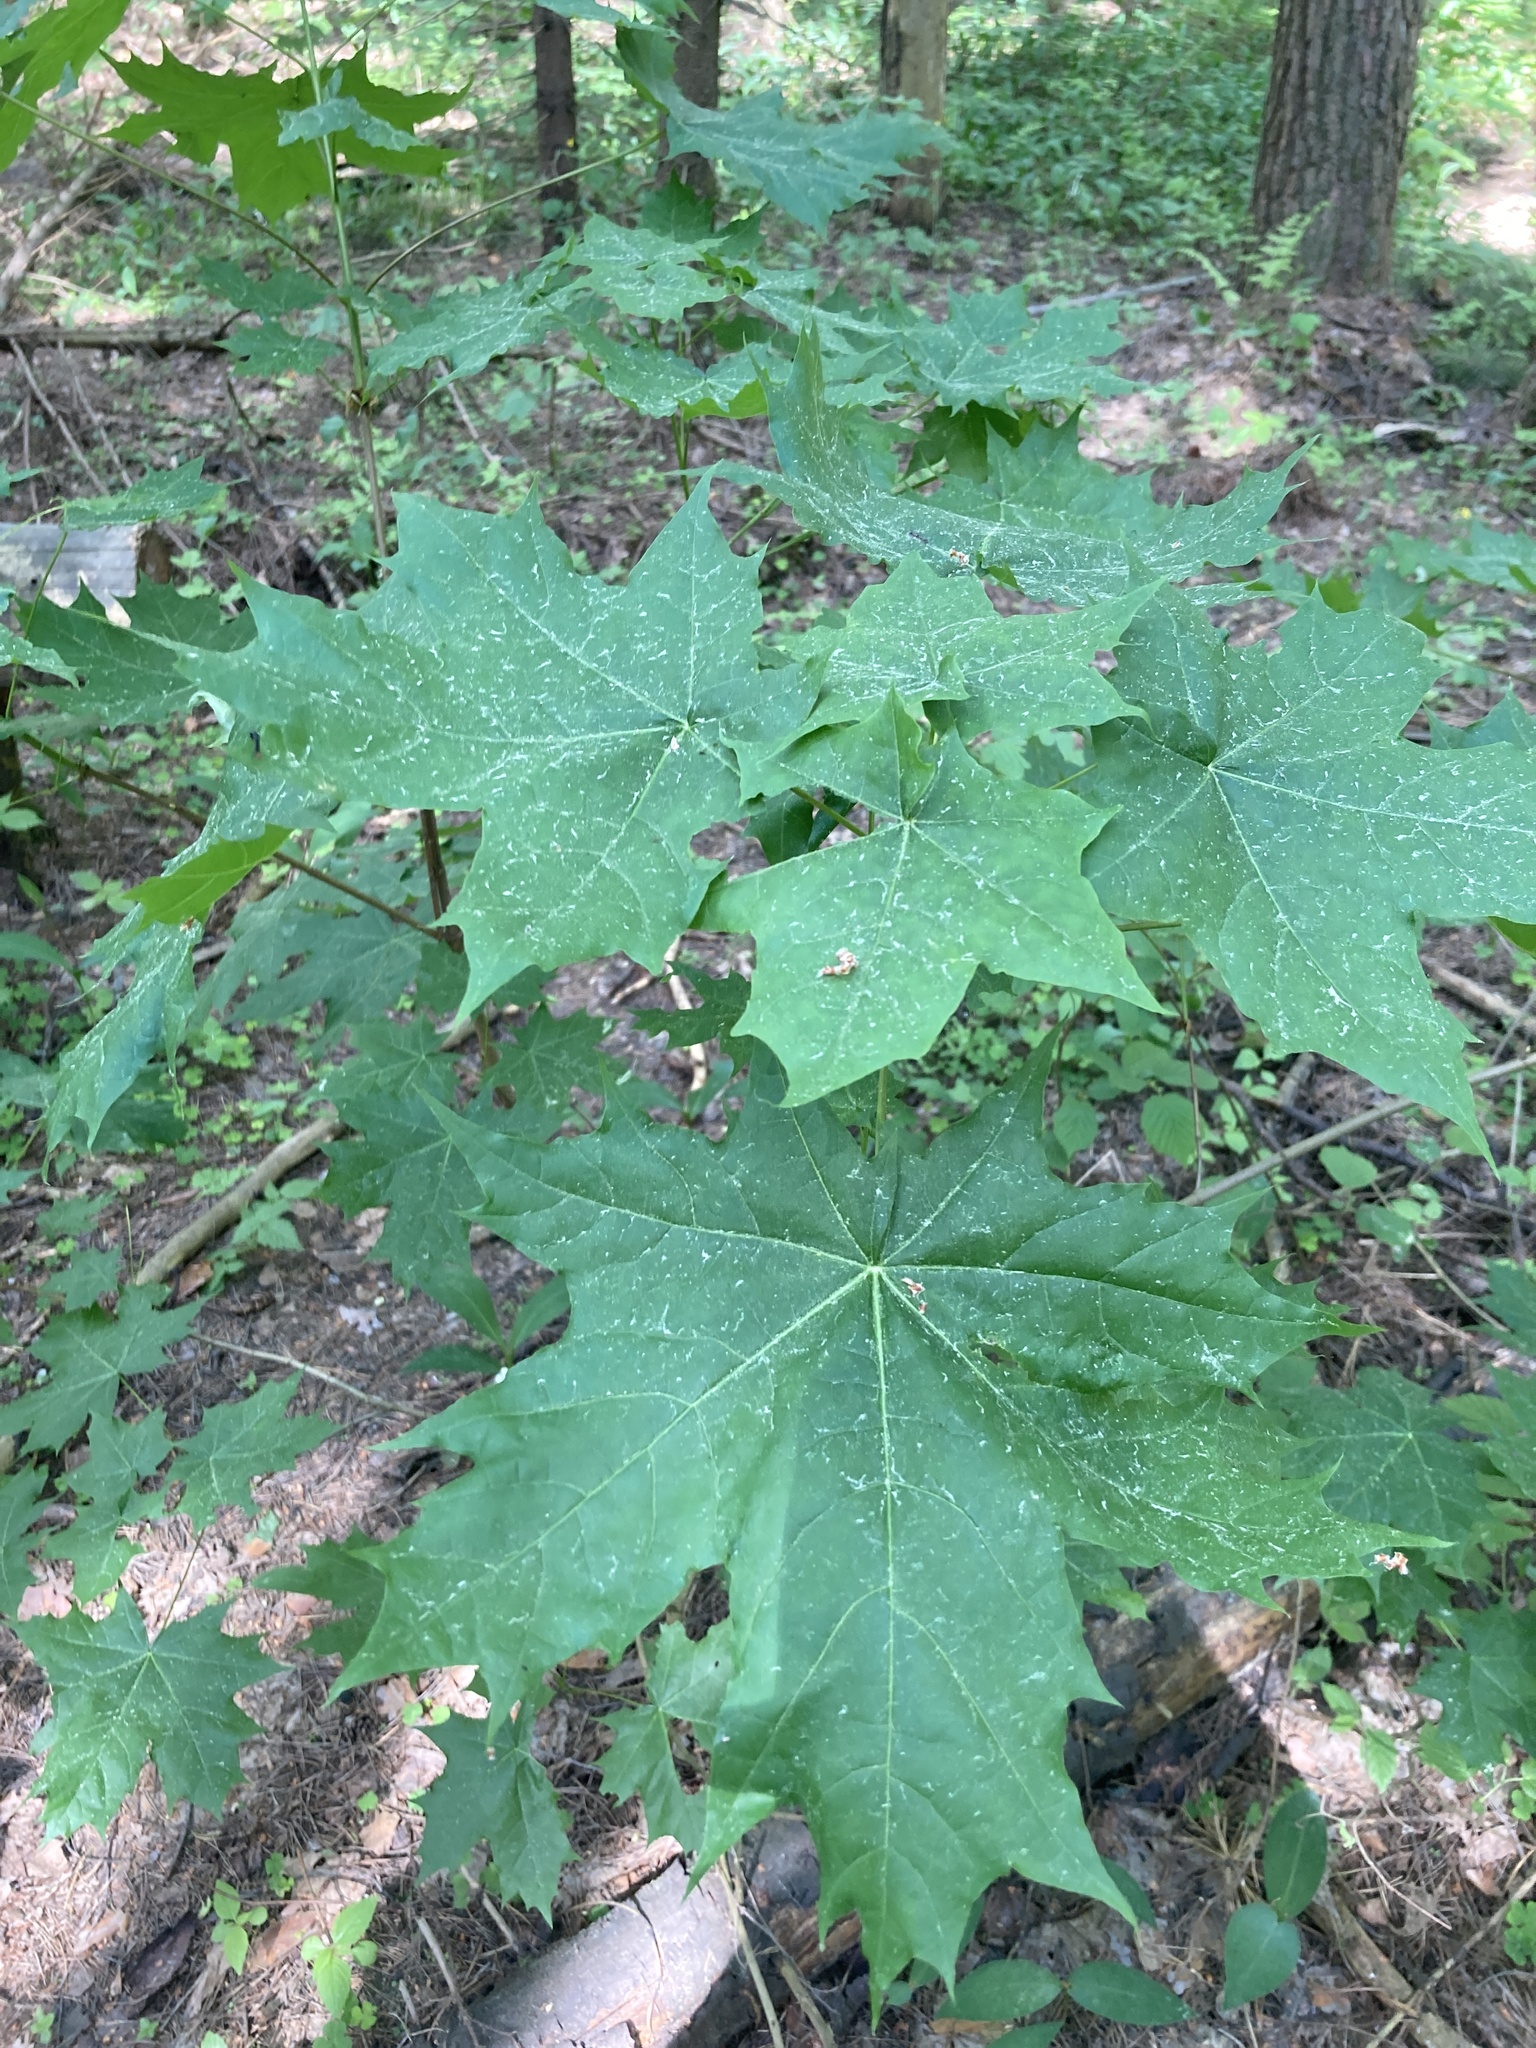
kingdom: Plantae
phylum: Tracheophyta
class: Magnoliopsida
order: Sapindales
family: Sapindaceae
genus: Acer
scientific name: Acer platanoides
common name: Norway maple
